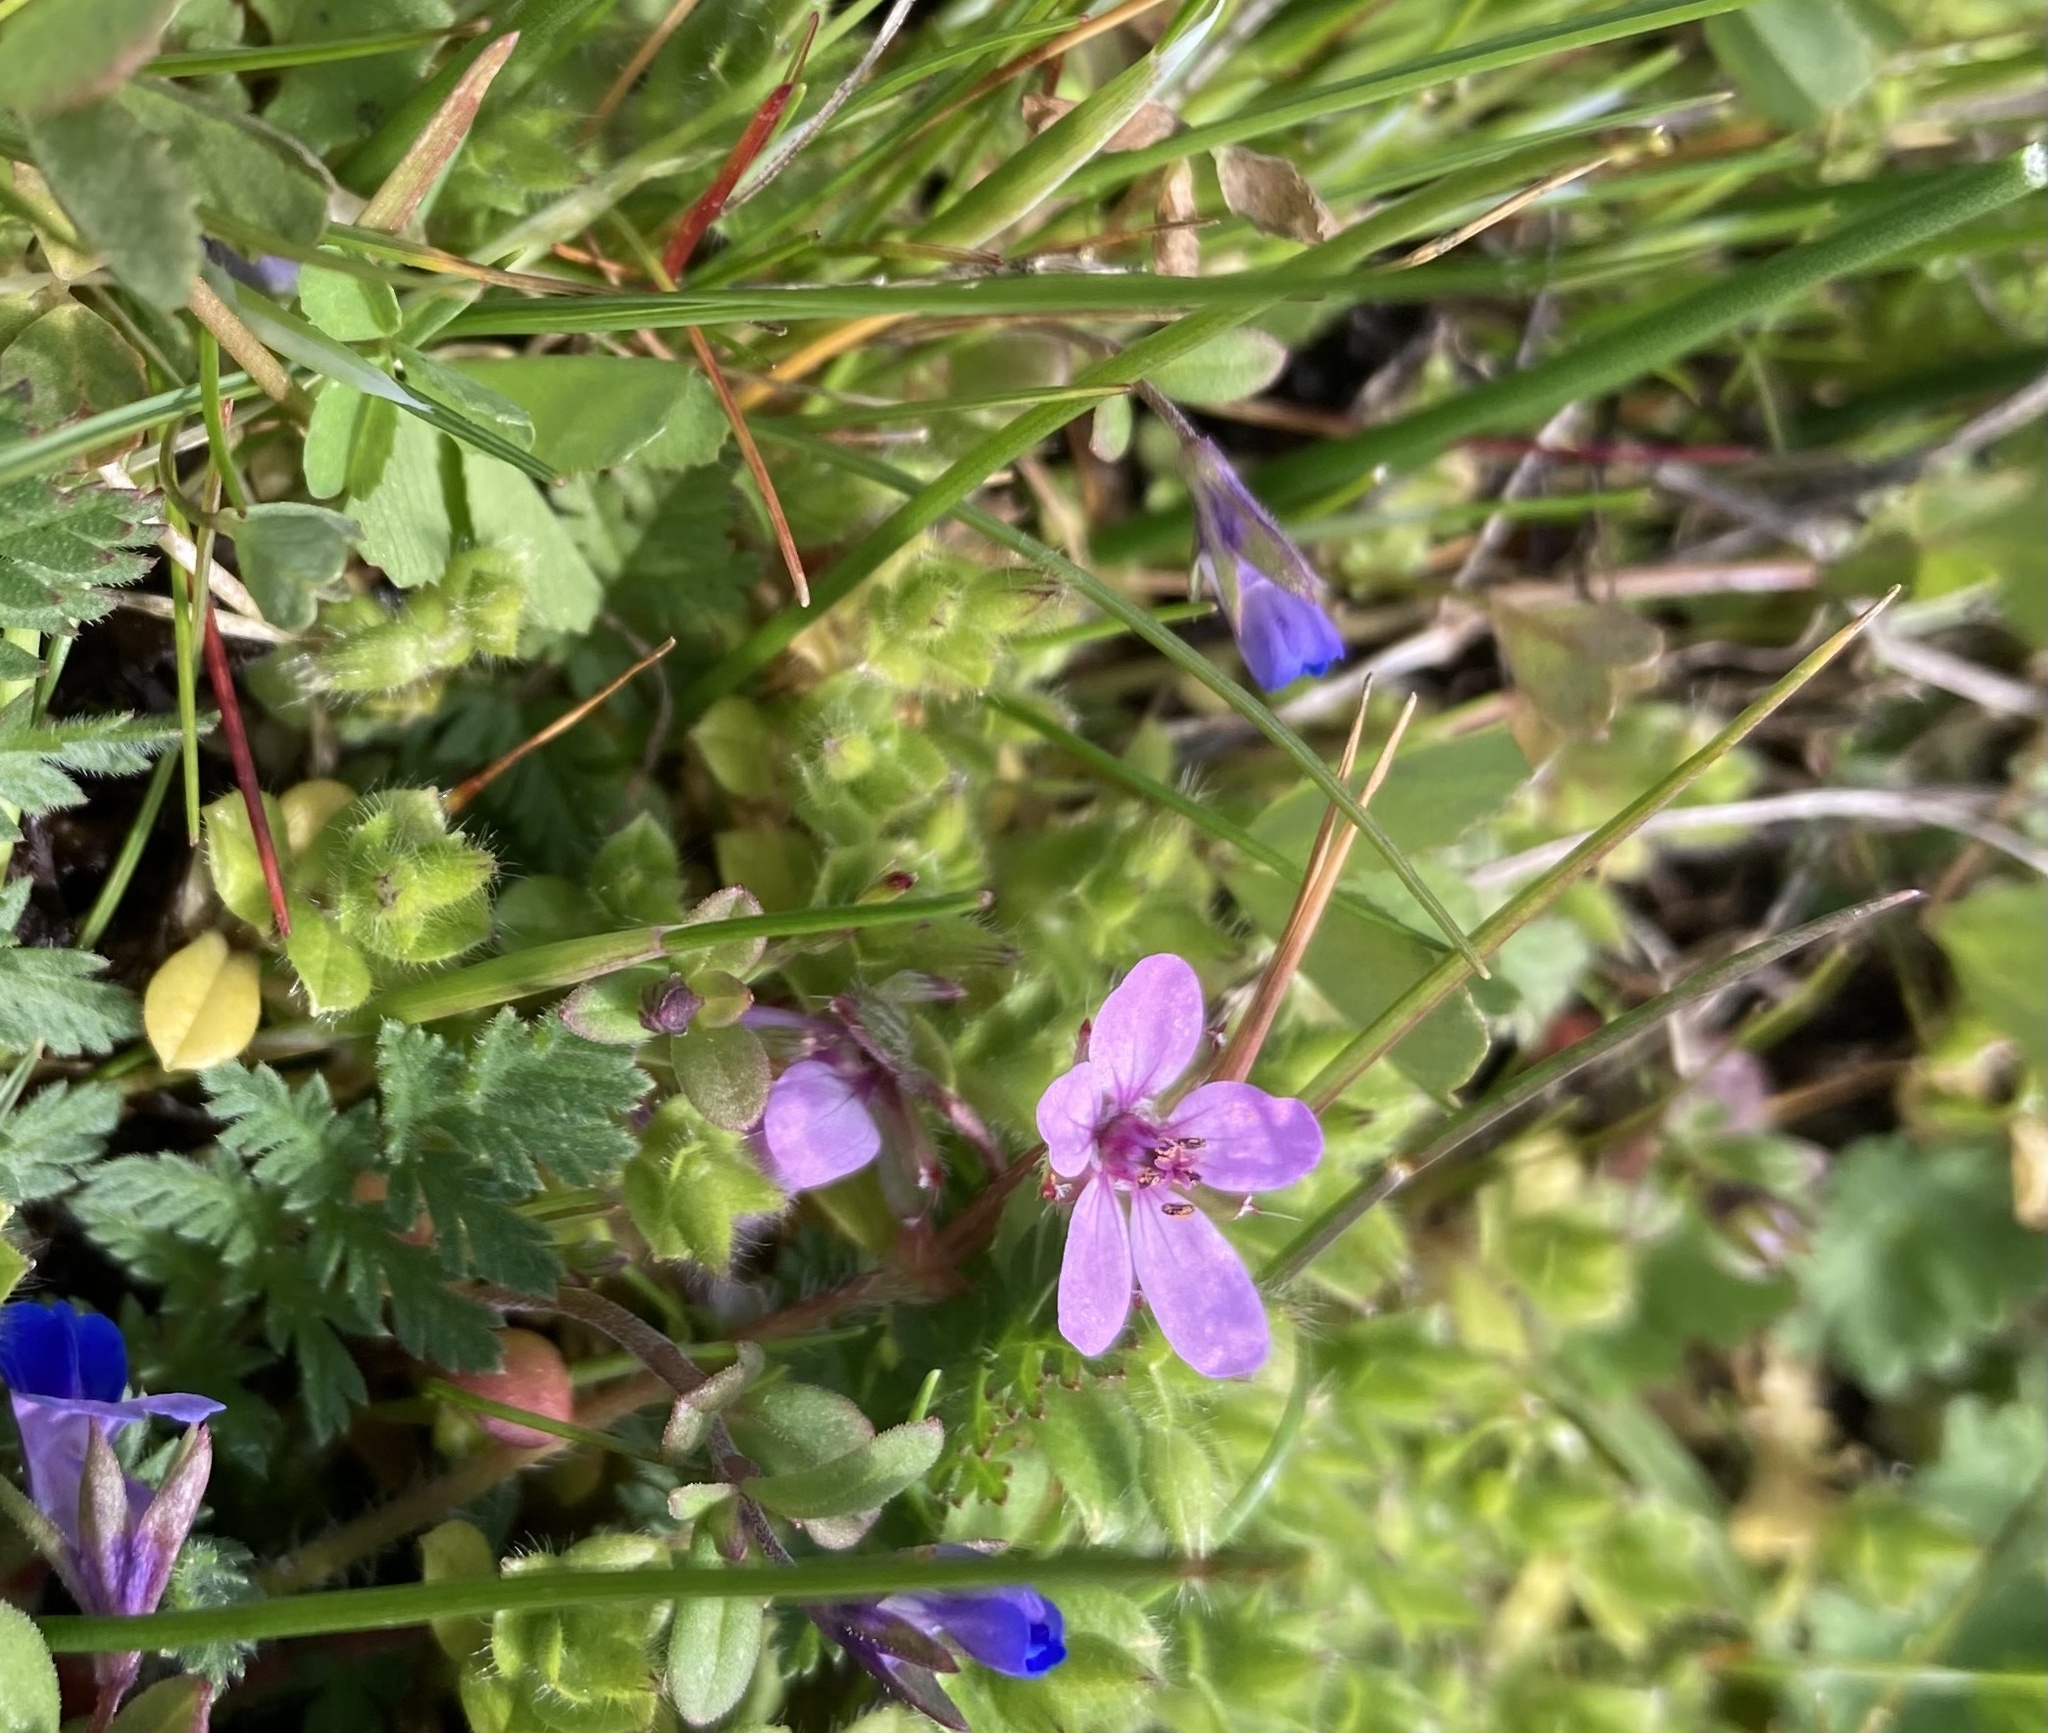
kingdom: Plantae
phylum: Tracheophyta
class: Magnoliopsida
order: Geraniales
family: Geraniaceae
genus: Erodium
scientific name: Erodium cicutarium
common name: Common stork's-bill
